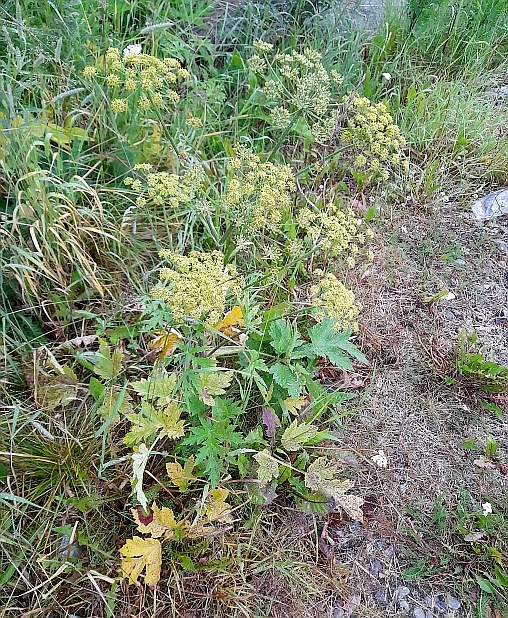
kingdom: Plantae
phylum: Tracheophyta
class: Magnoliopsida
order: Apiales
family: Apiaceae
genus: Heracleum
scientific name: Heracleum sphondylium
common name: Hogweed
